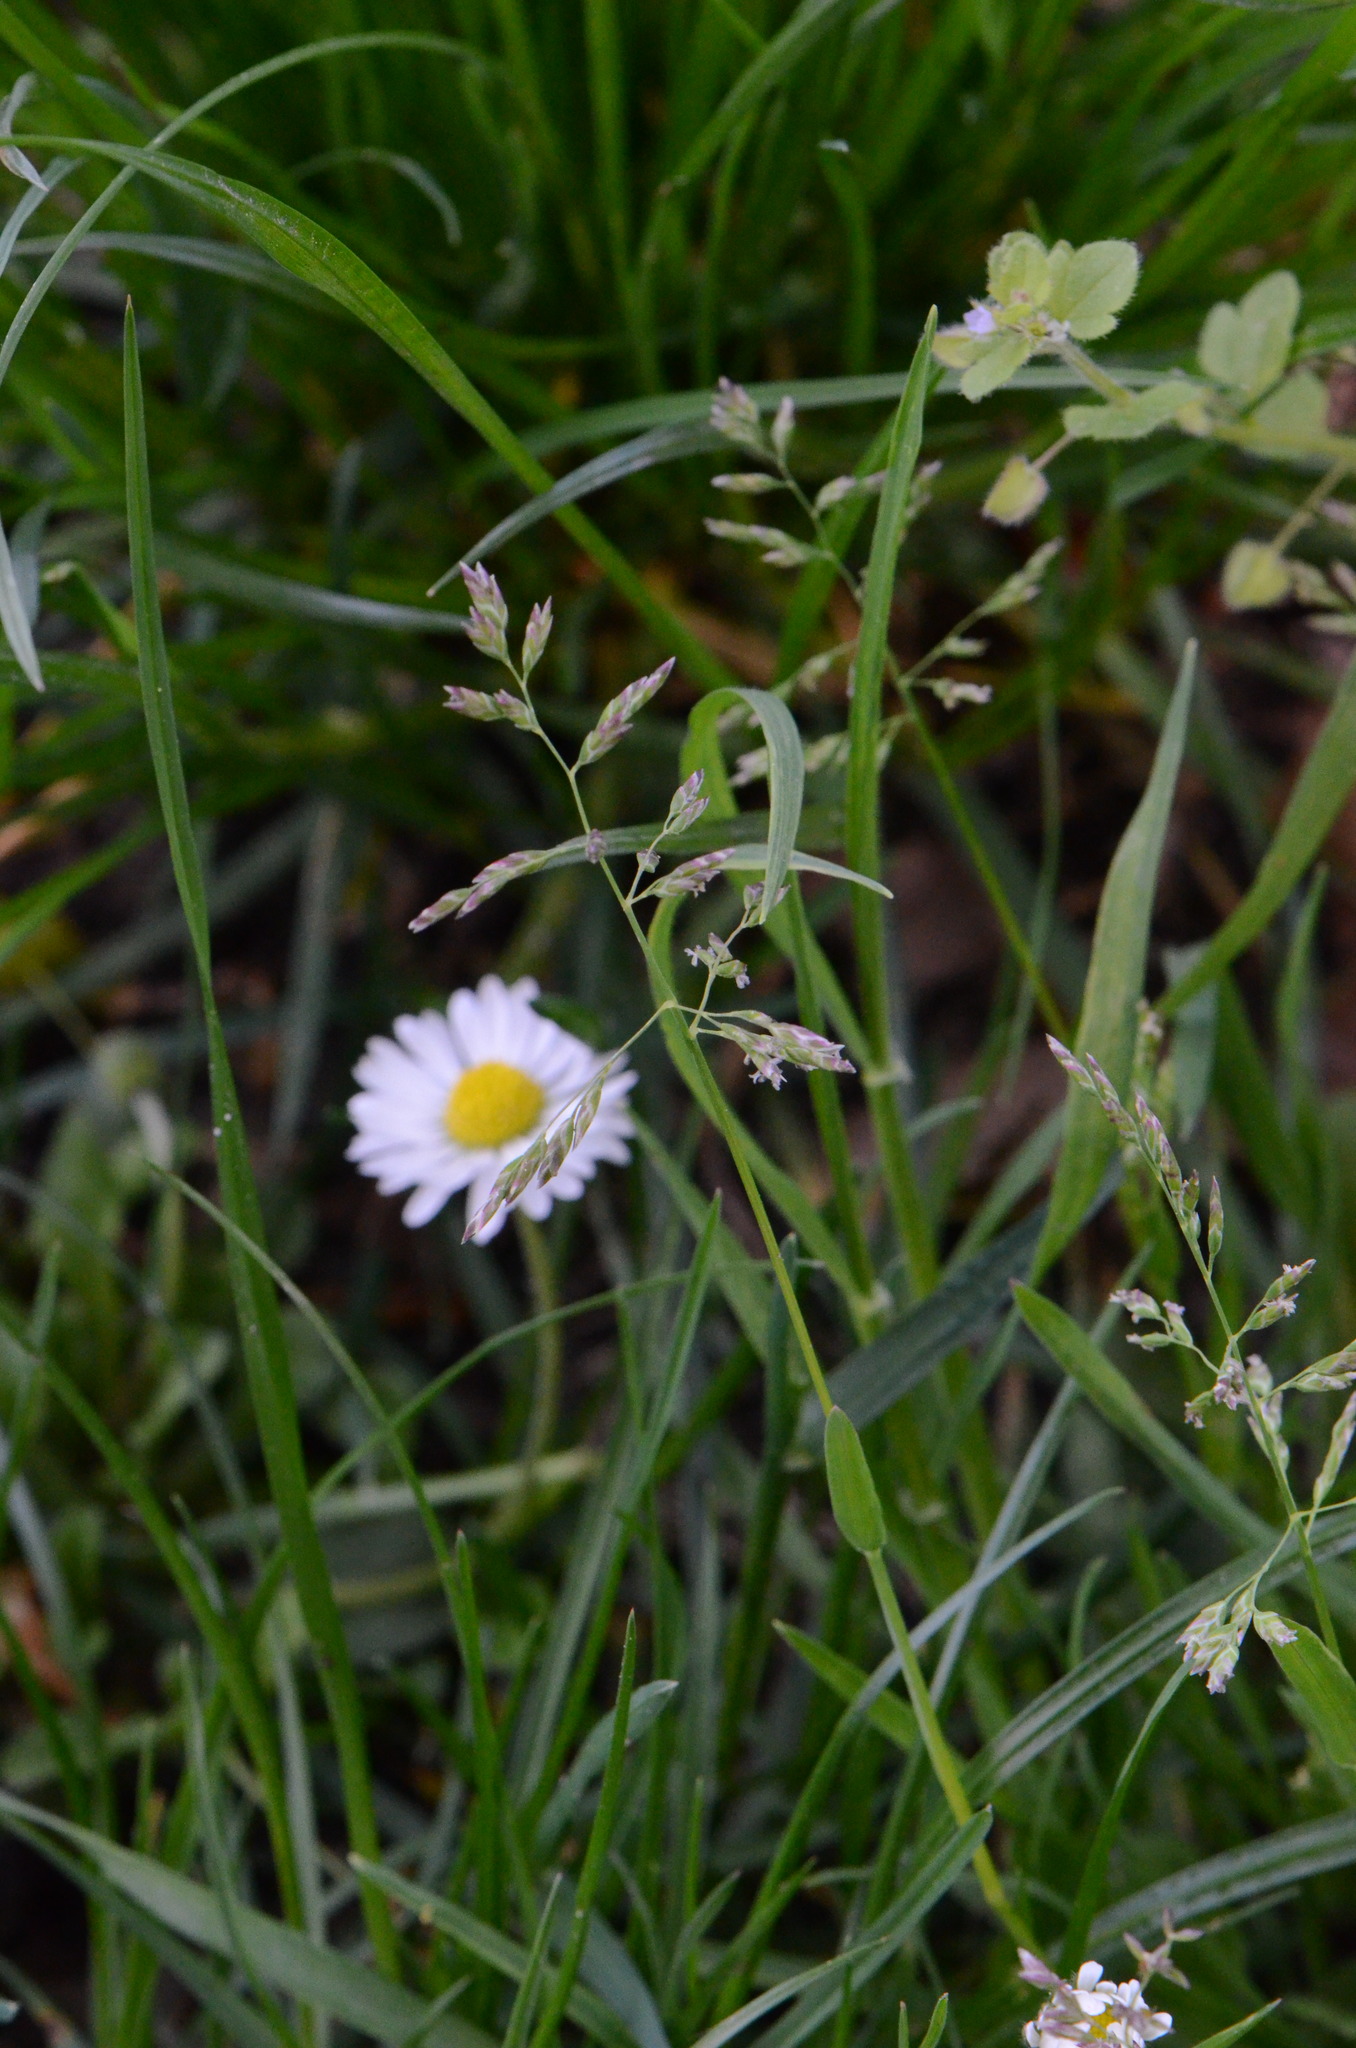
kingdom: Plantae
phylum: Tracheophyta
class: Liliopsida
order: Poales
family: Poaceae
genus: Poa
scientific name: Poa annua
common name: Annual bluegrass
